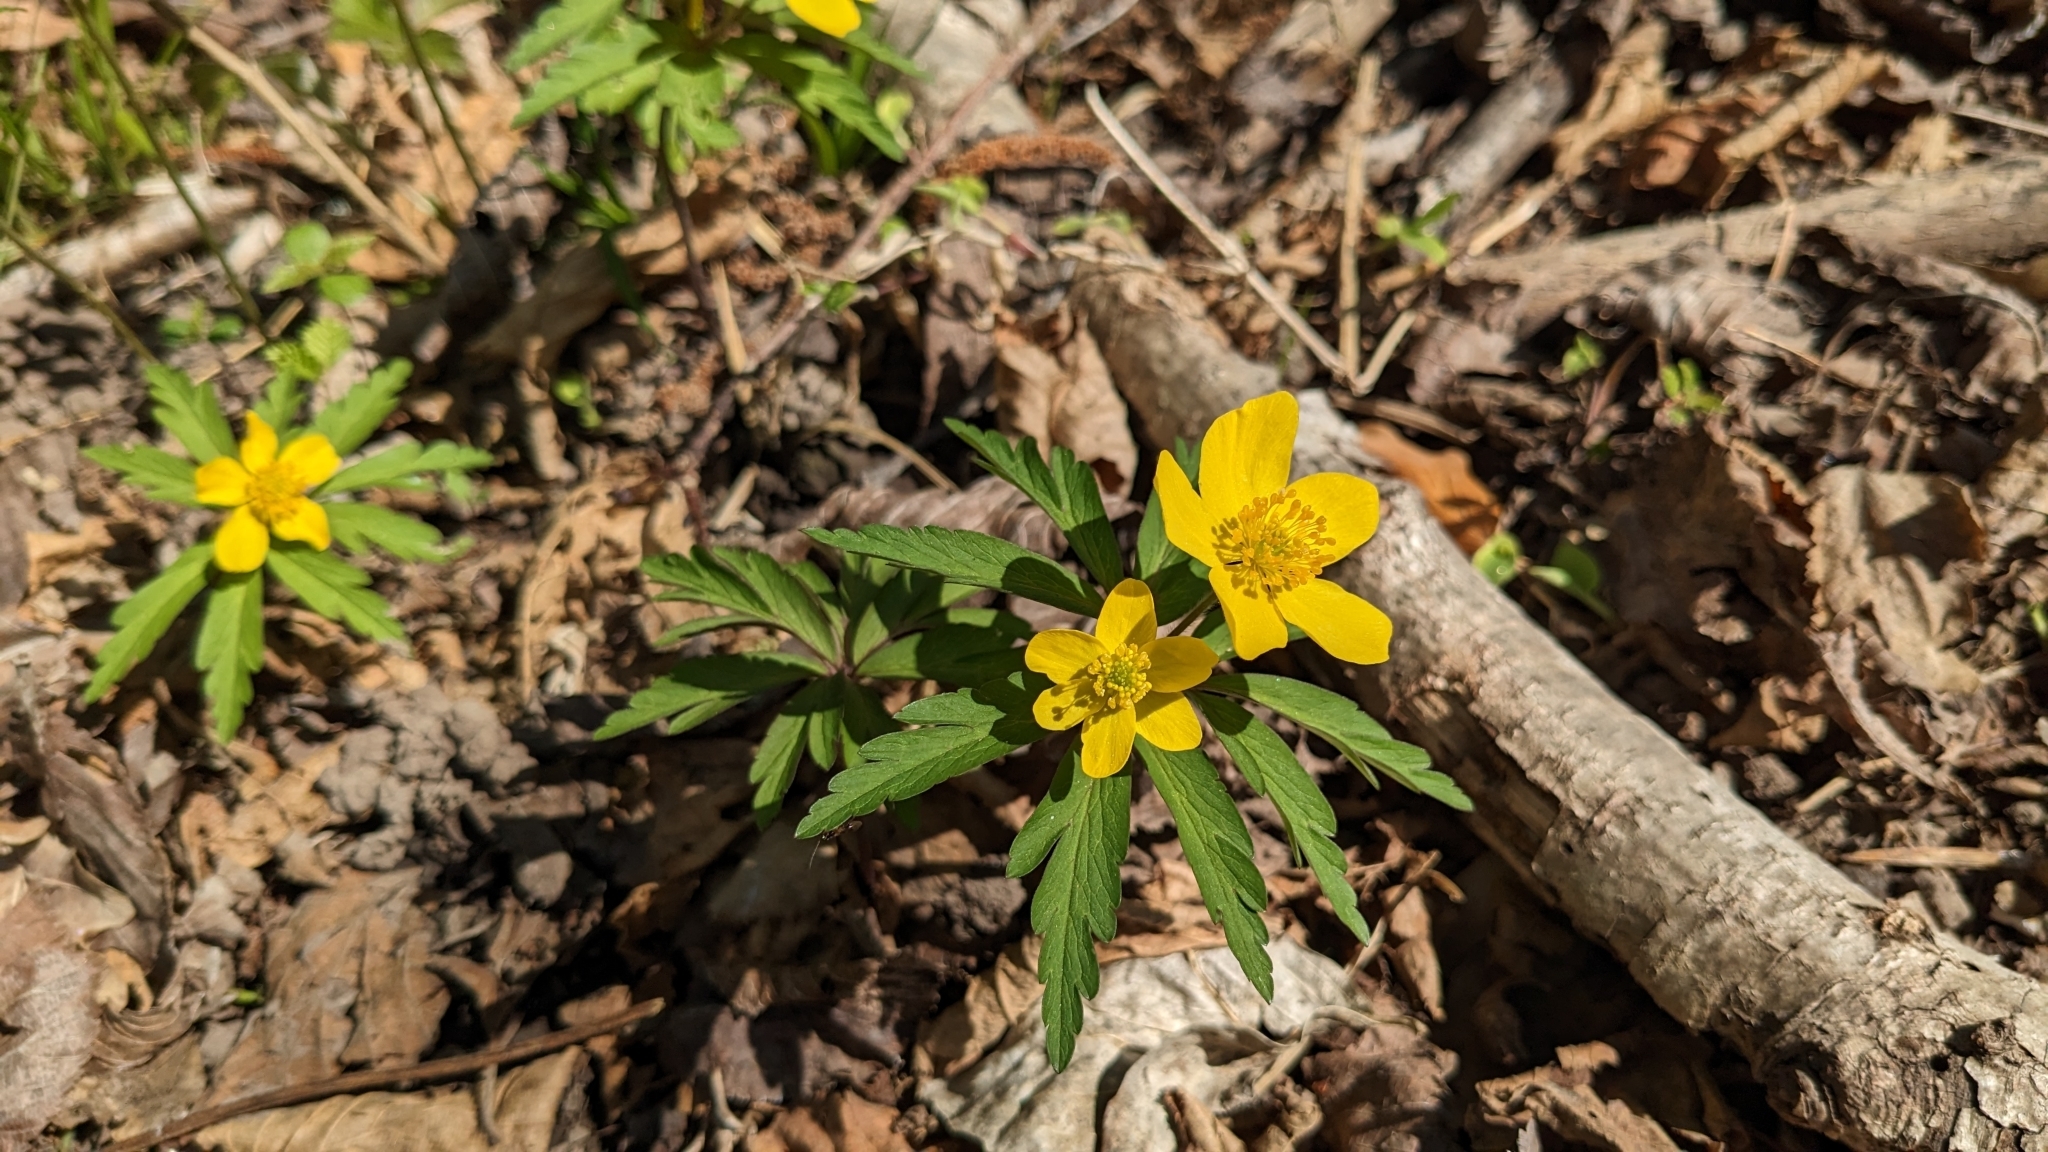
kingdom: Plantae
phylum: Tracheophyta
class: Magnoliopsida
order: Ranunculales
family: Ranunculaceae
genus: Anemone
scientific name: Anemone ranunculoides
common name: Yellow anemone
